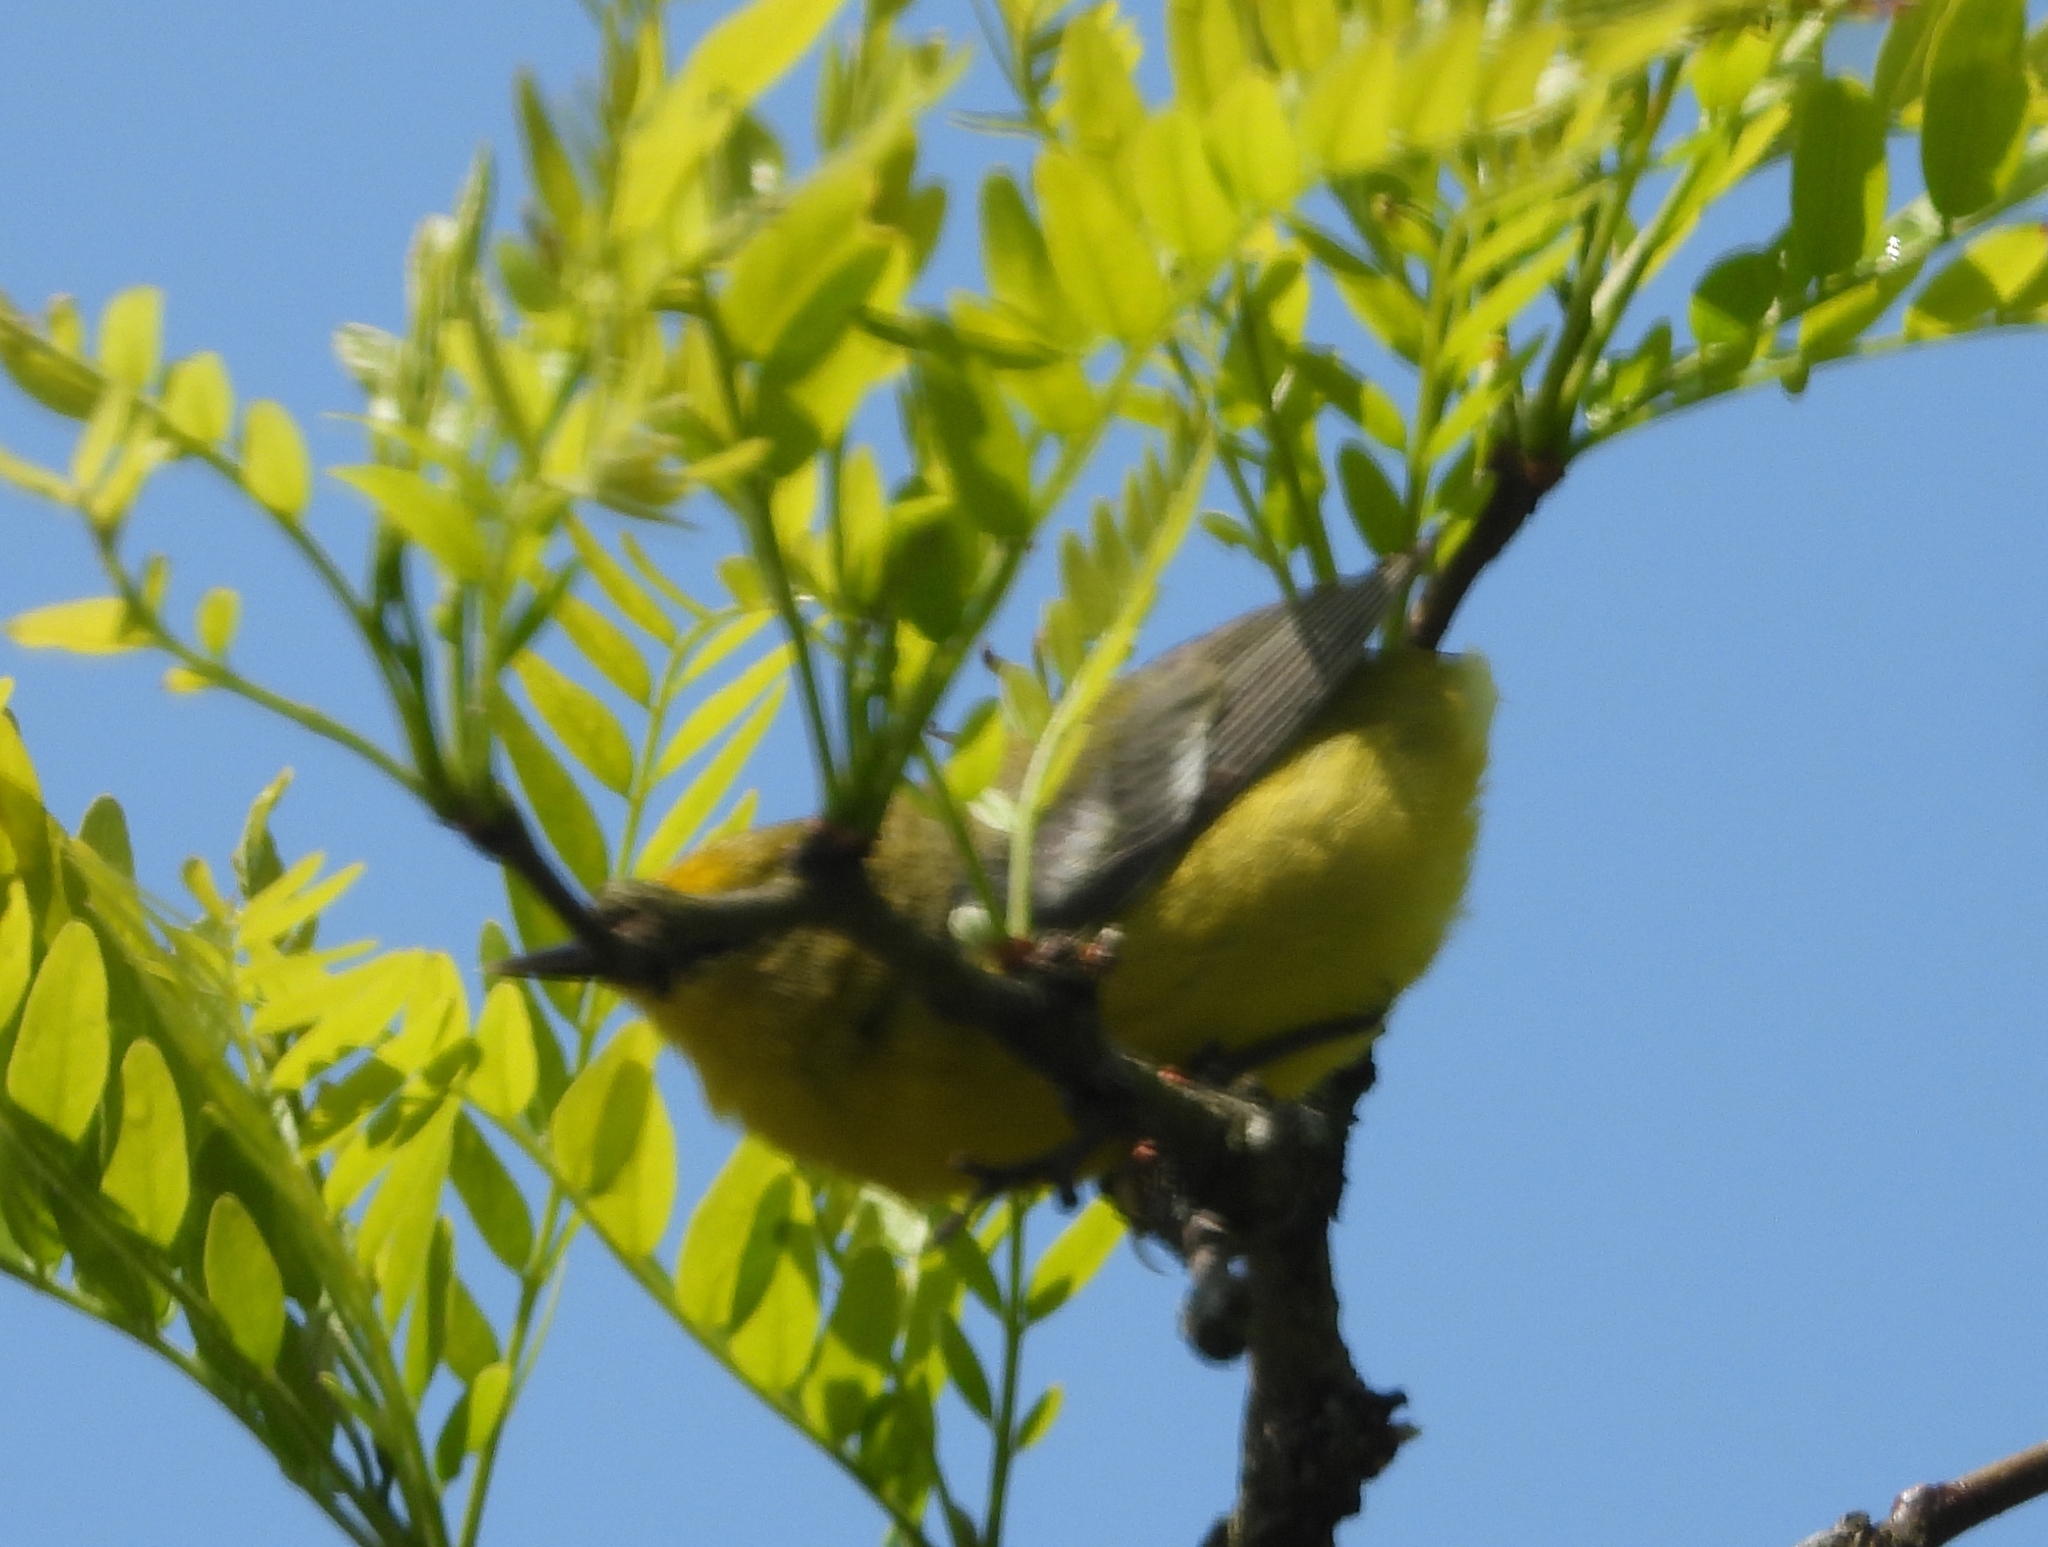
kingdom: Animalia
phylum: Chordata
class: Aves
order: Passeriformes
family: Parulidae
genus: Vermivora
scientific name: Vermivora cyanoptera
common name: Blue-winged warbler
